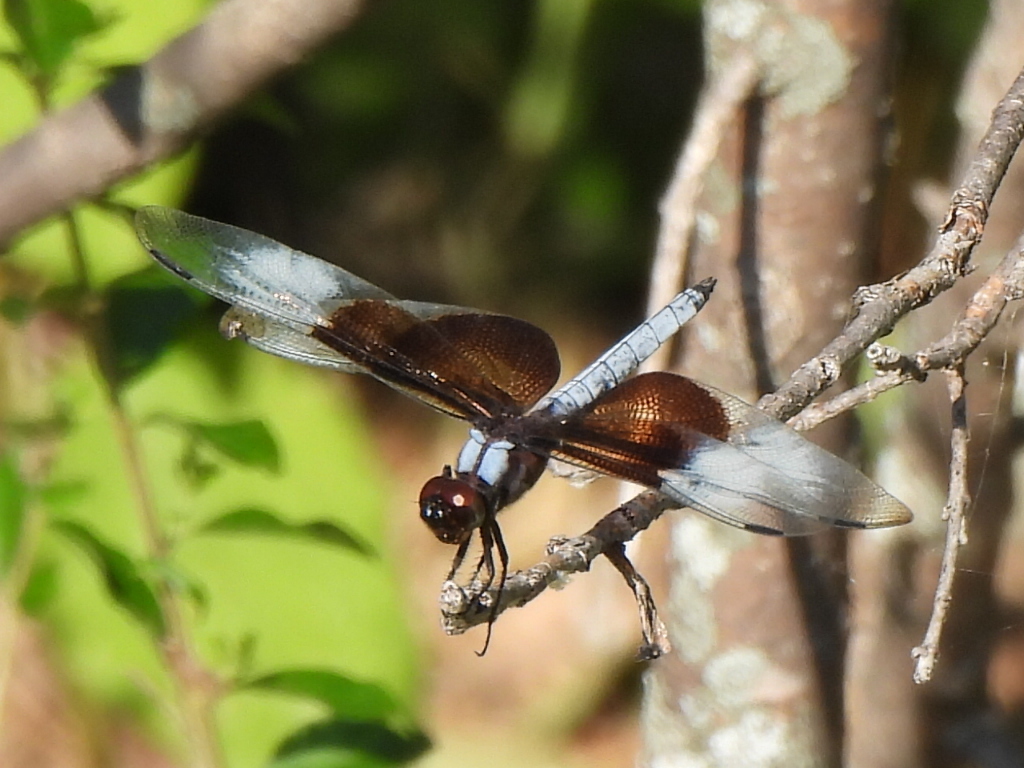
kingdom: Animalia
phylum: Arthropoda
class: Insecta
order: Odonata
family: Libellulidae
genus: Libellula
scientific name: Libellula luctuosa
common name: Widow skimmer
